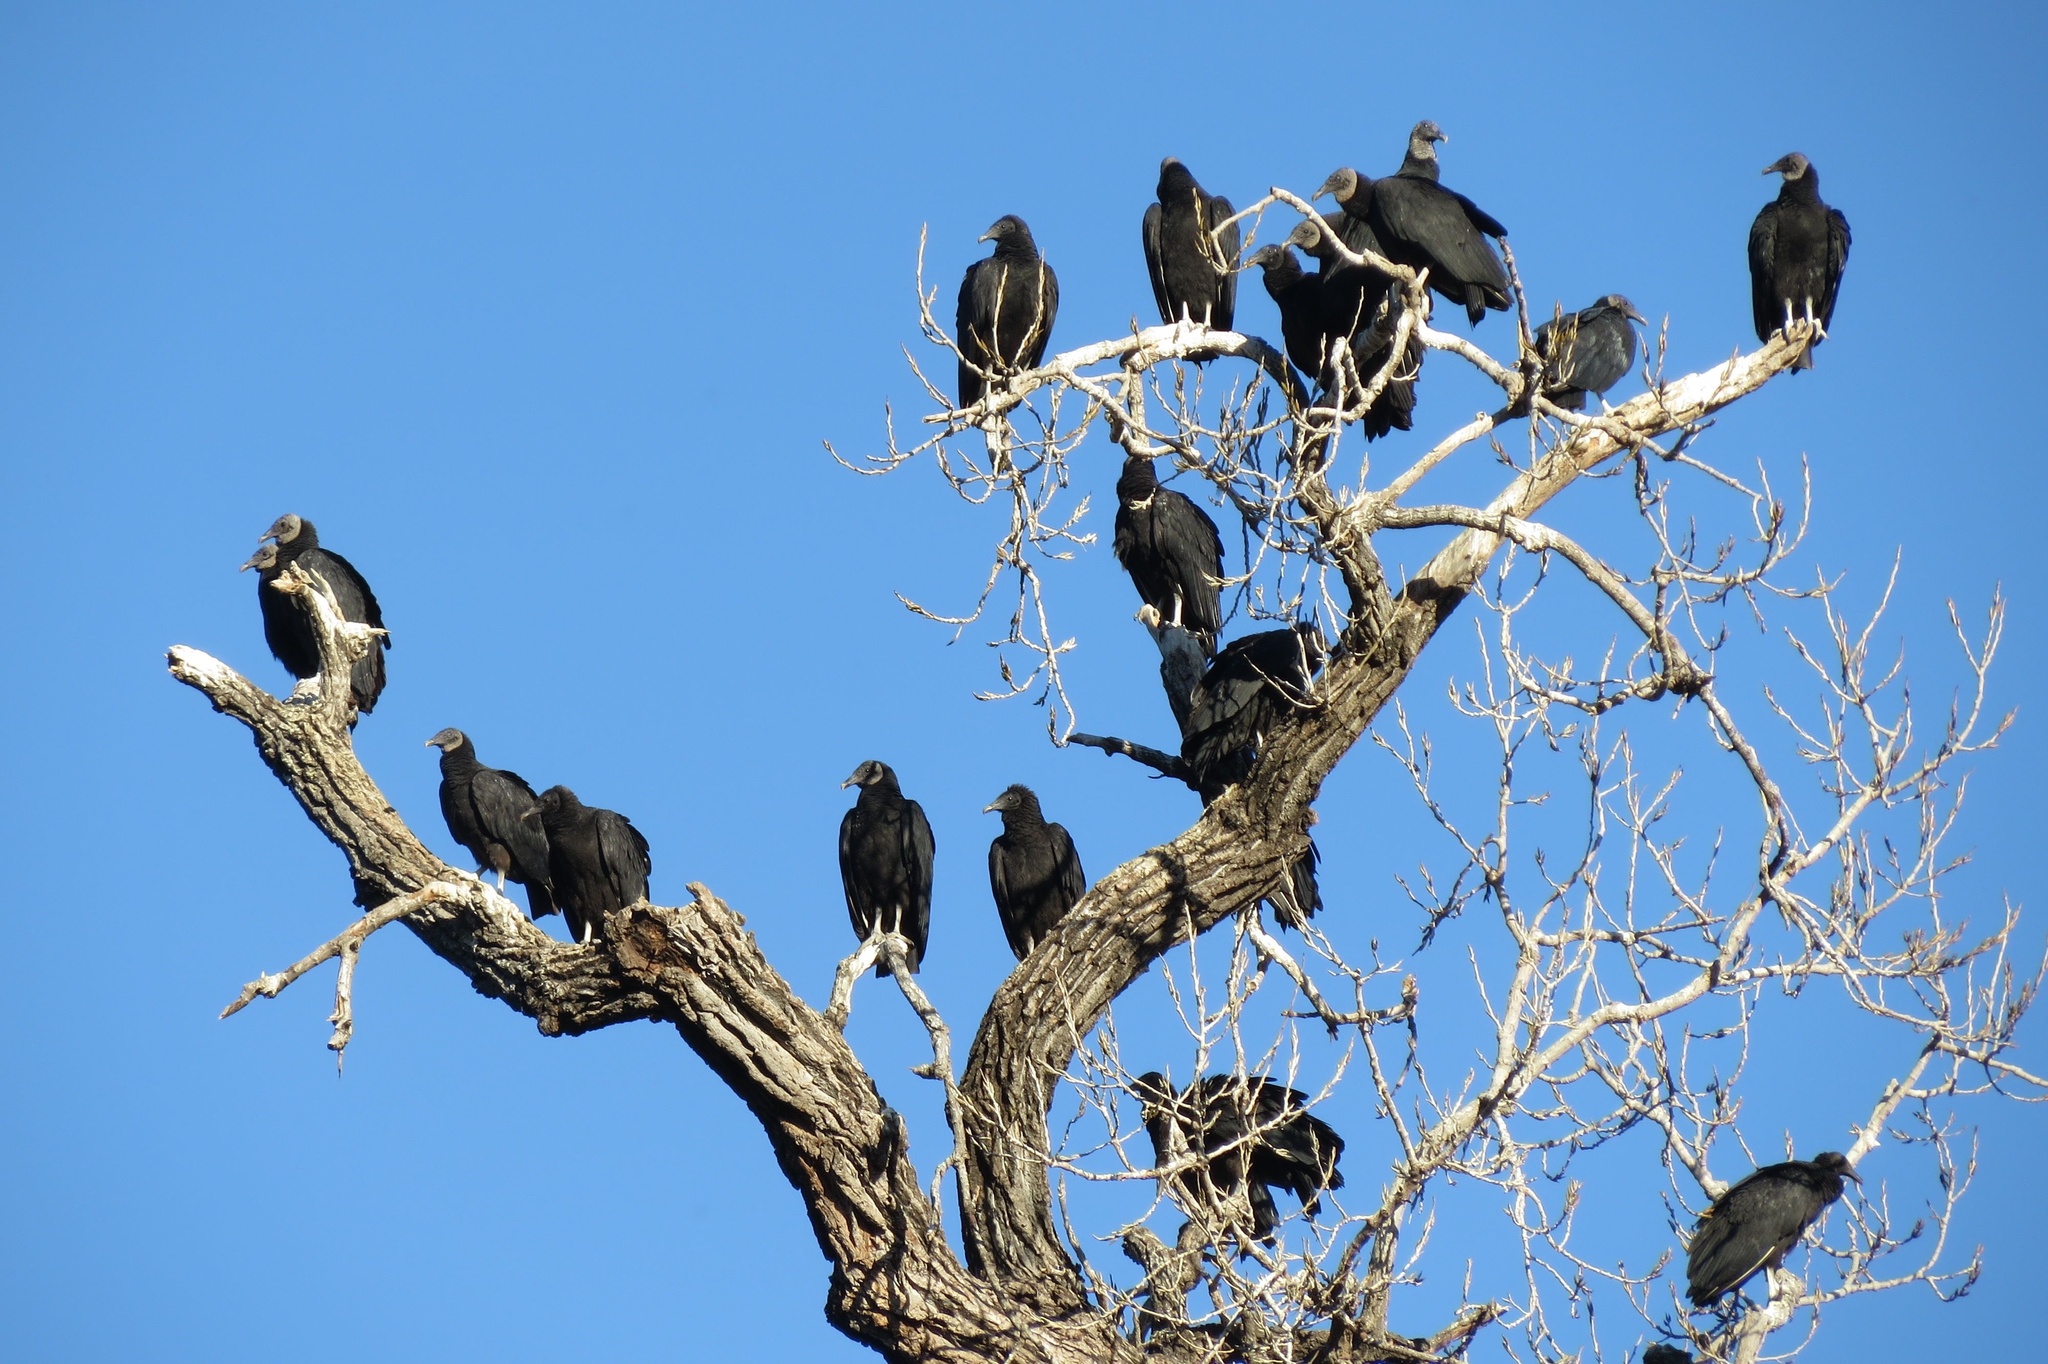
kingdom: Animalia
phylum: Chordata
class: Aves
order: Accipitriformes
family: Cathartidae
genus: Coragyps
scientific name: Coragyps atratus
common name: Black vulture
